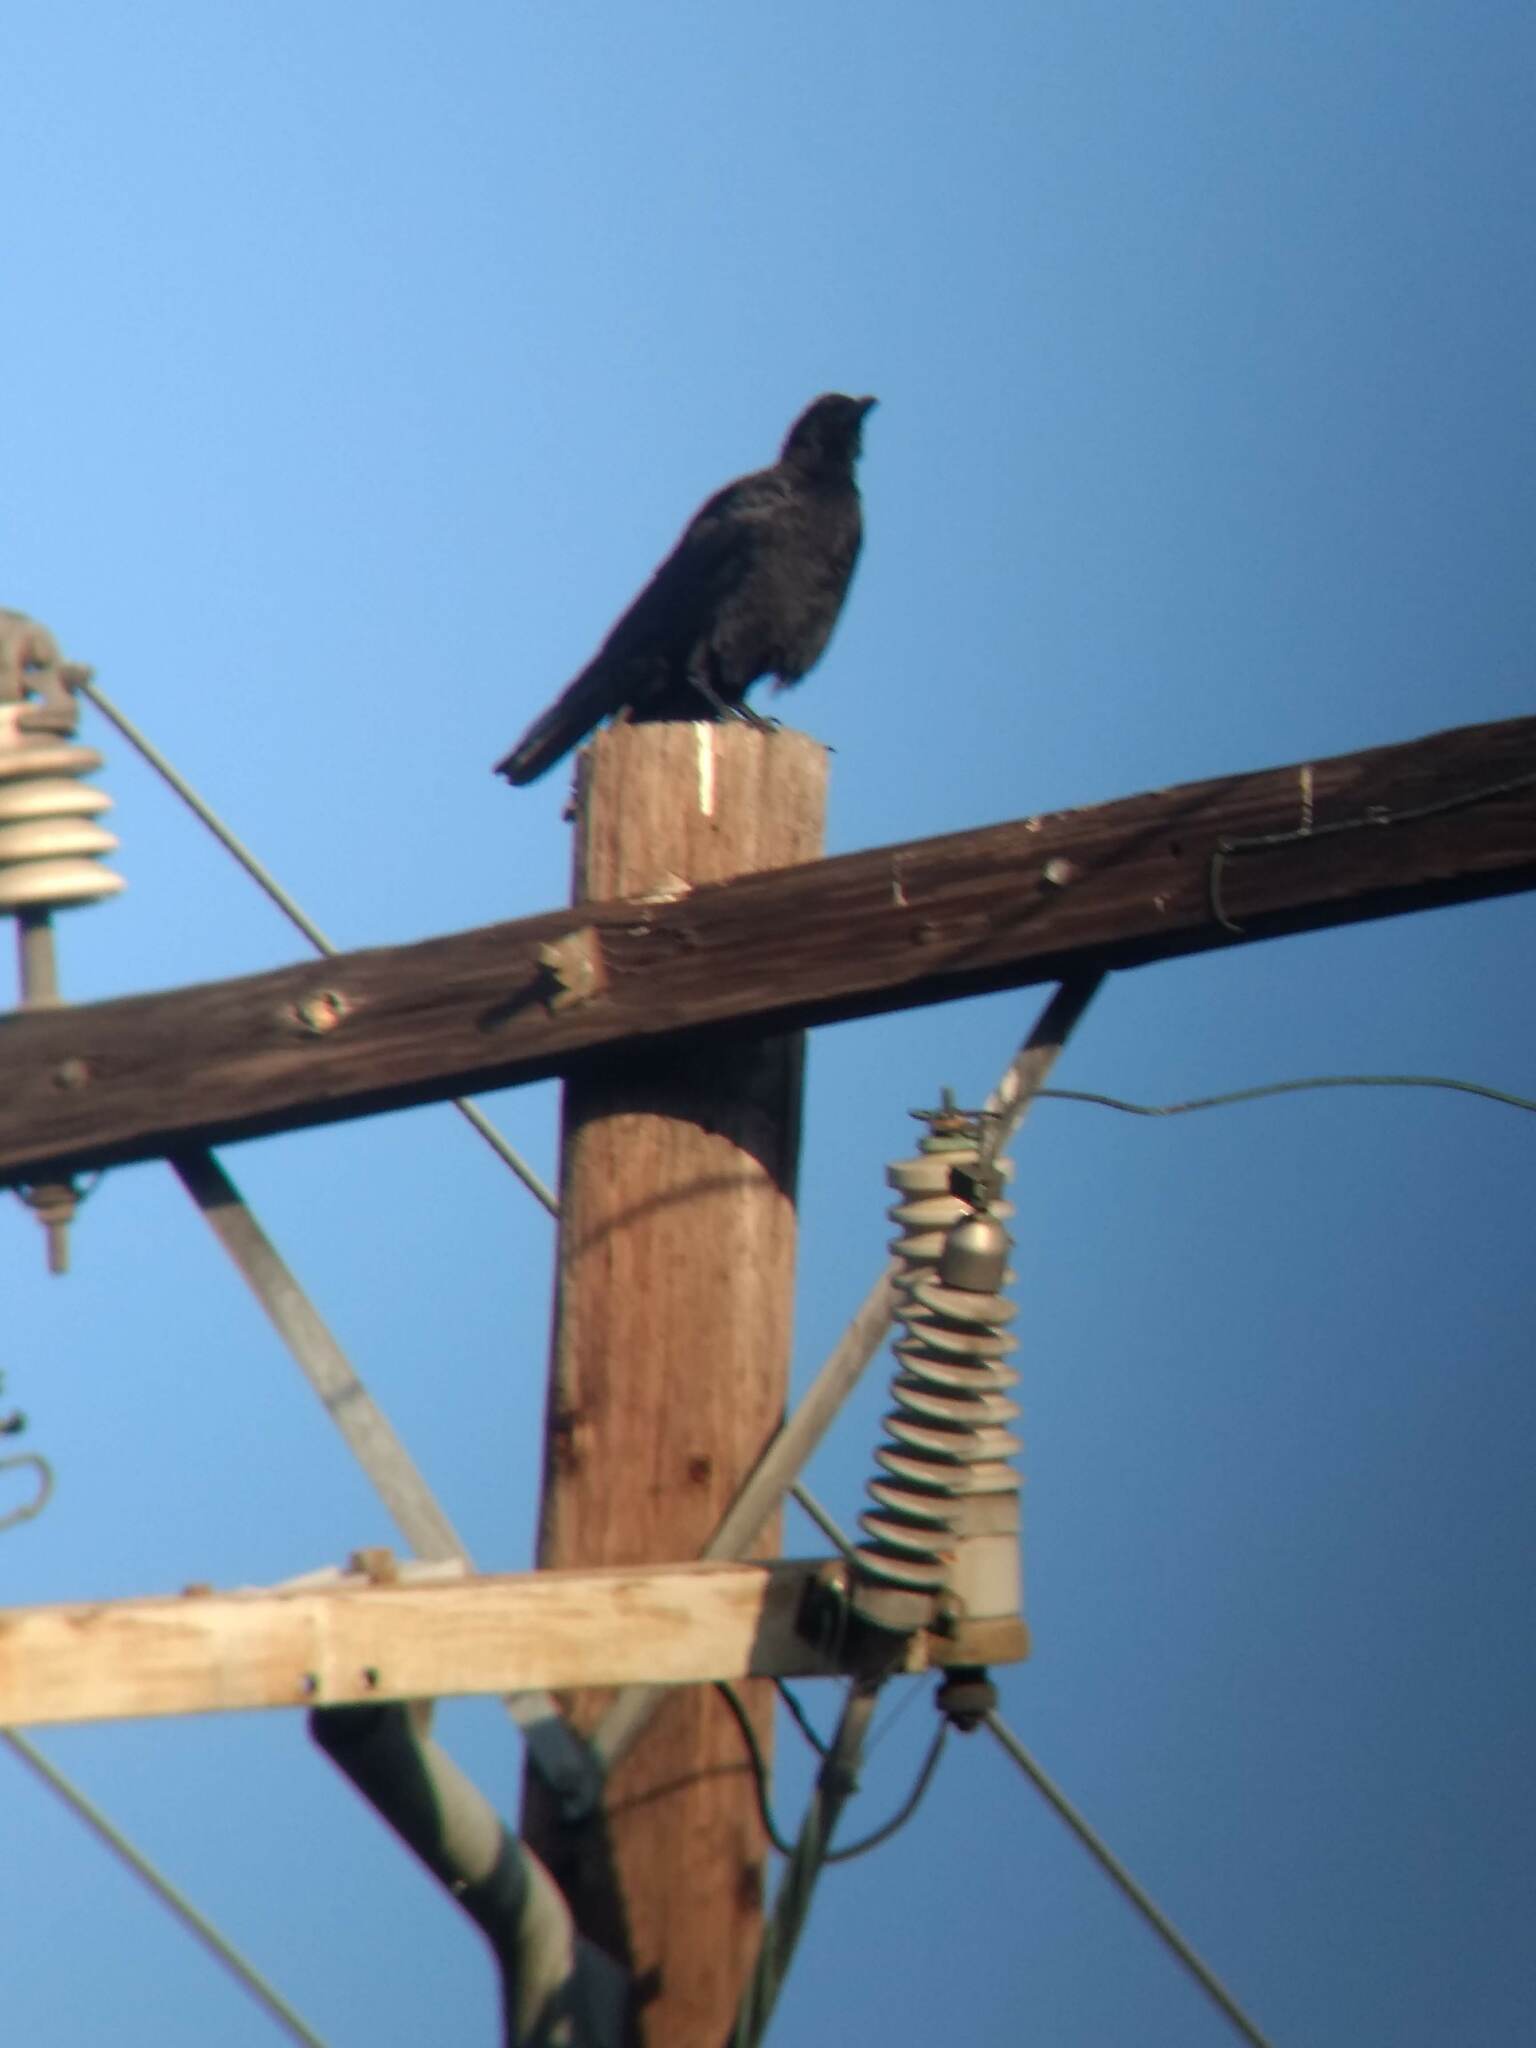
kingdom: Animalia
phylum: Chordata
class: Aves
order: Passeriformes
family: Corvidae
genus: Corvus
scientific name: Corvus brachyrhynchos
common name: American crow
